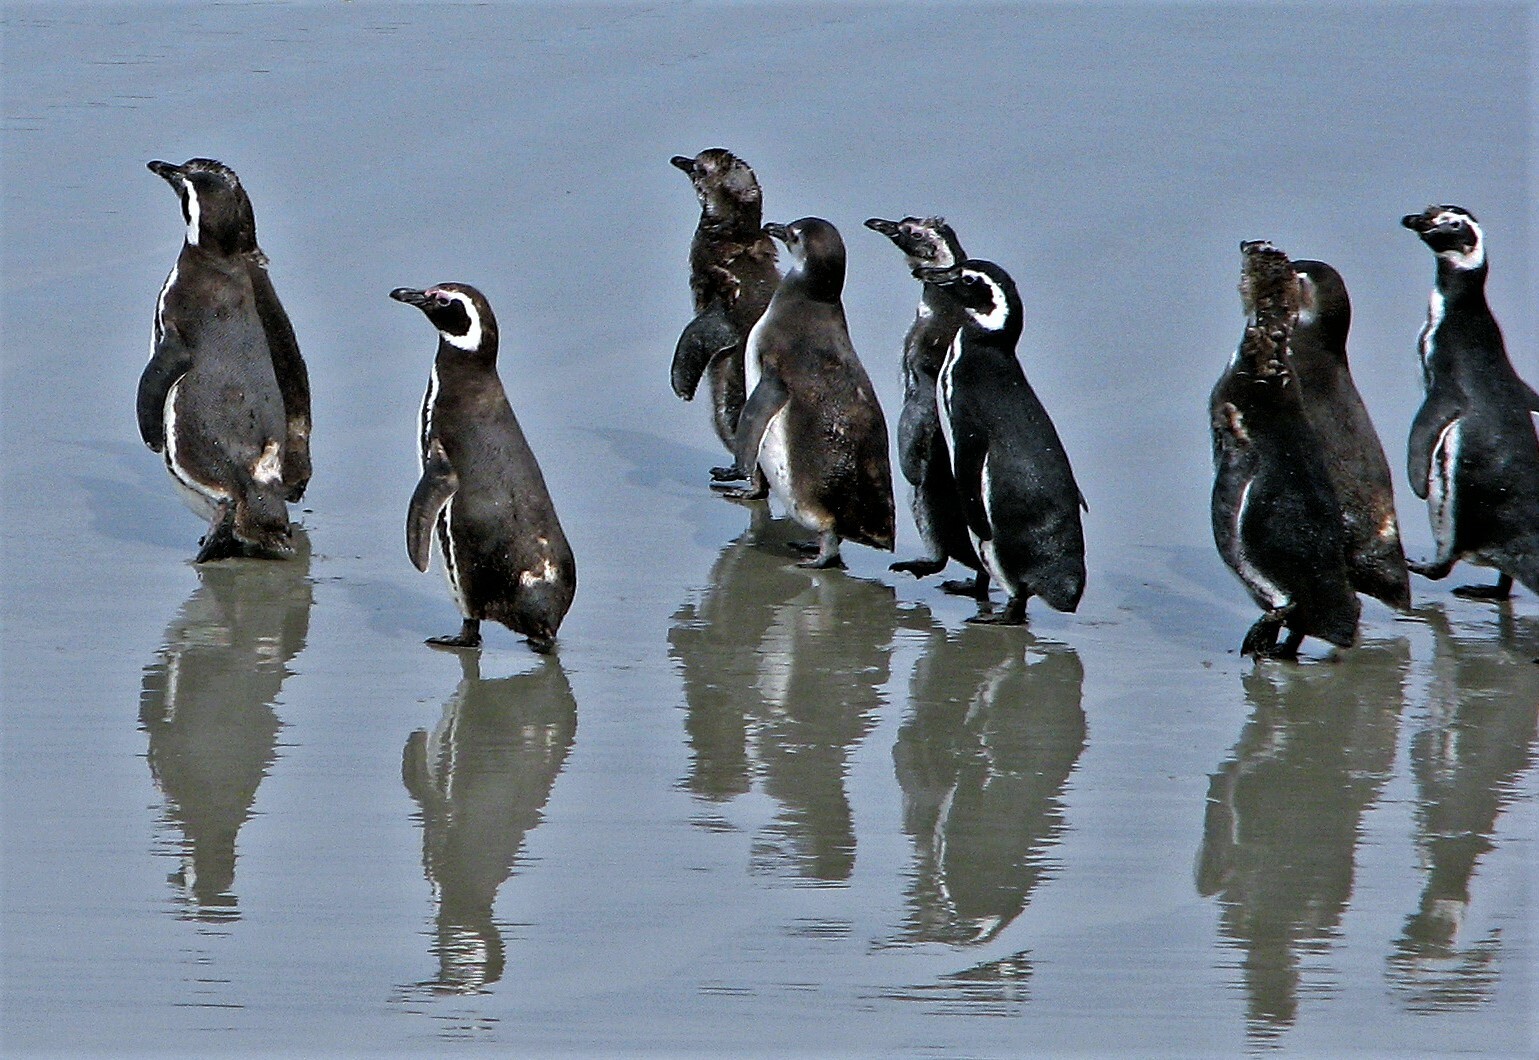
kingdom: Animalia
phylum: Chordata
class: Aves
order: Sphenisciformes
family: Spheniscidae
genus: Spheniscus
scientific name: Spheniscus magellanicus
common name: Magellanic penguin
